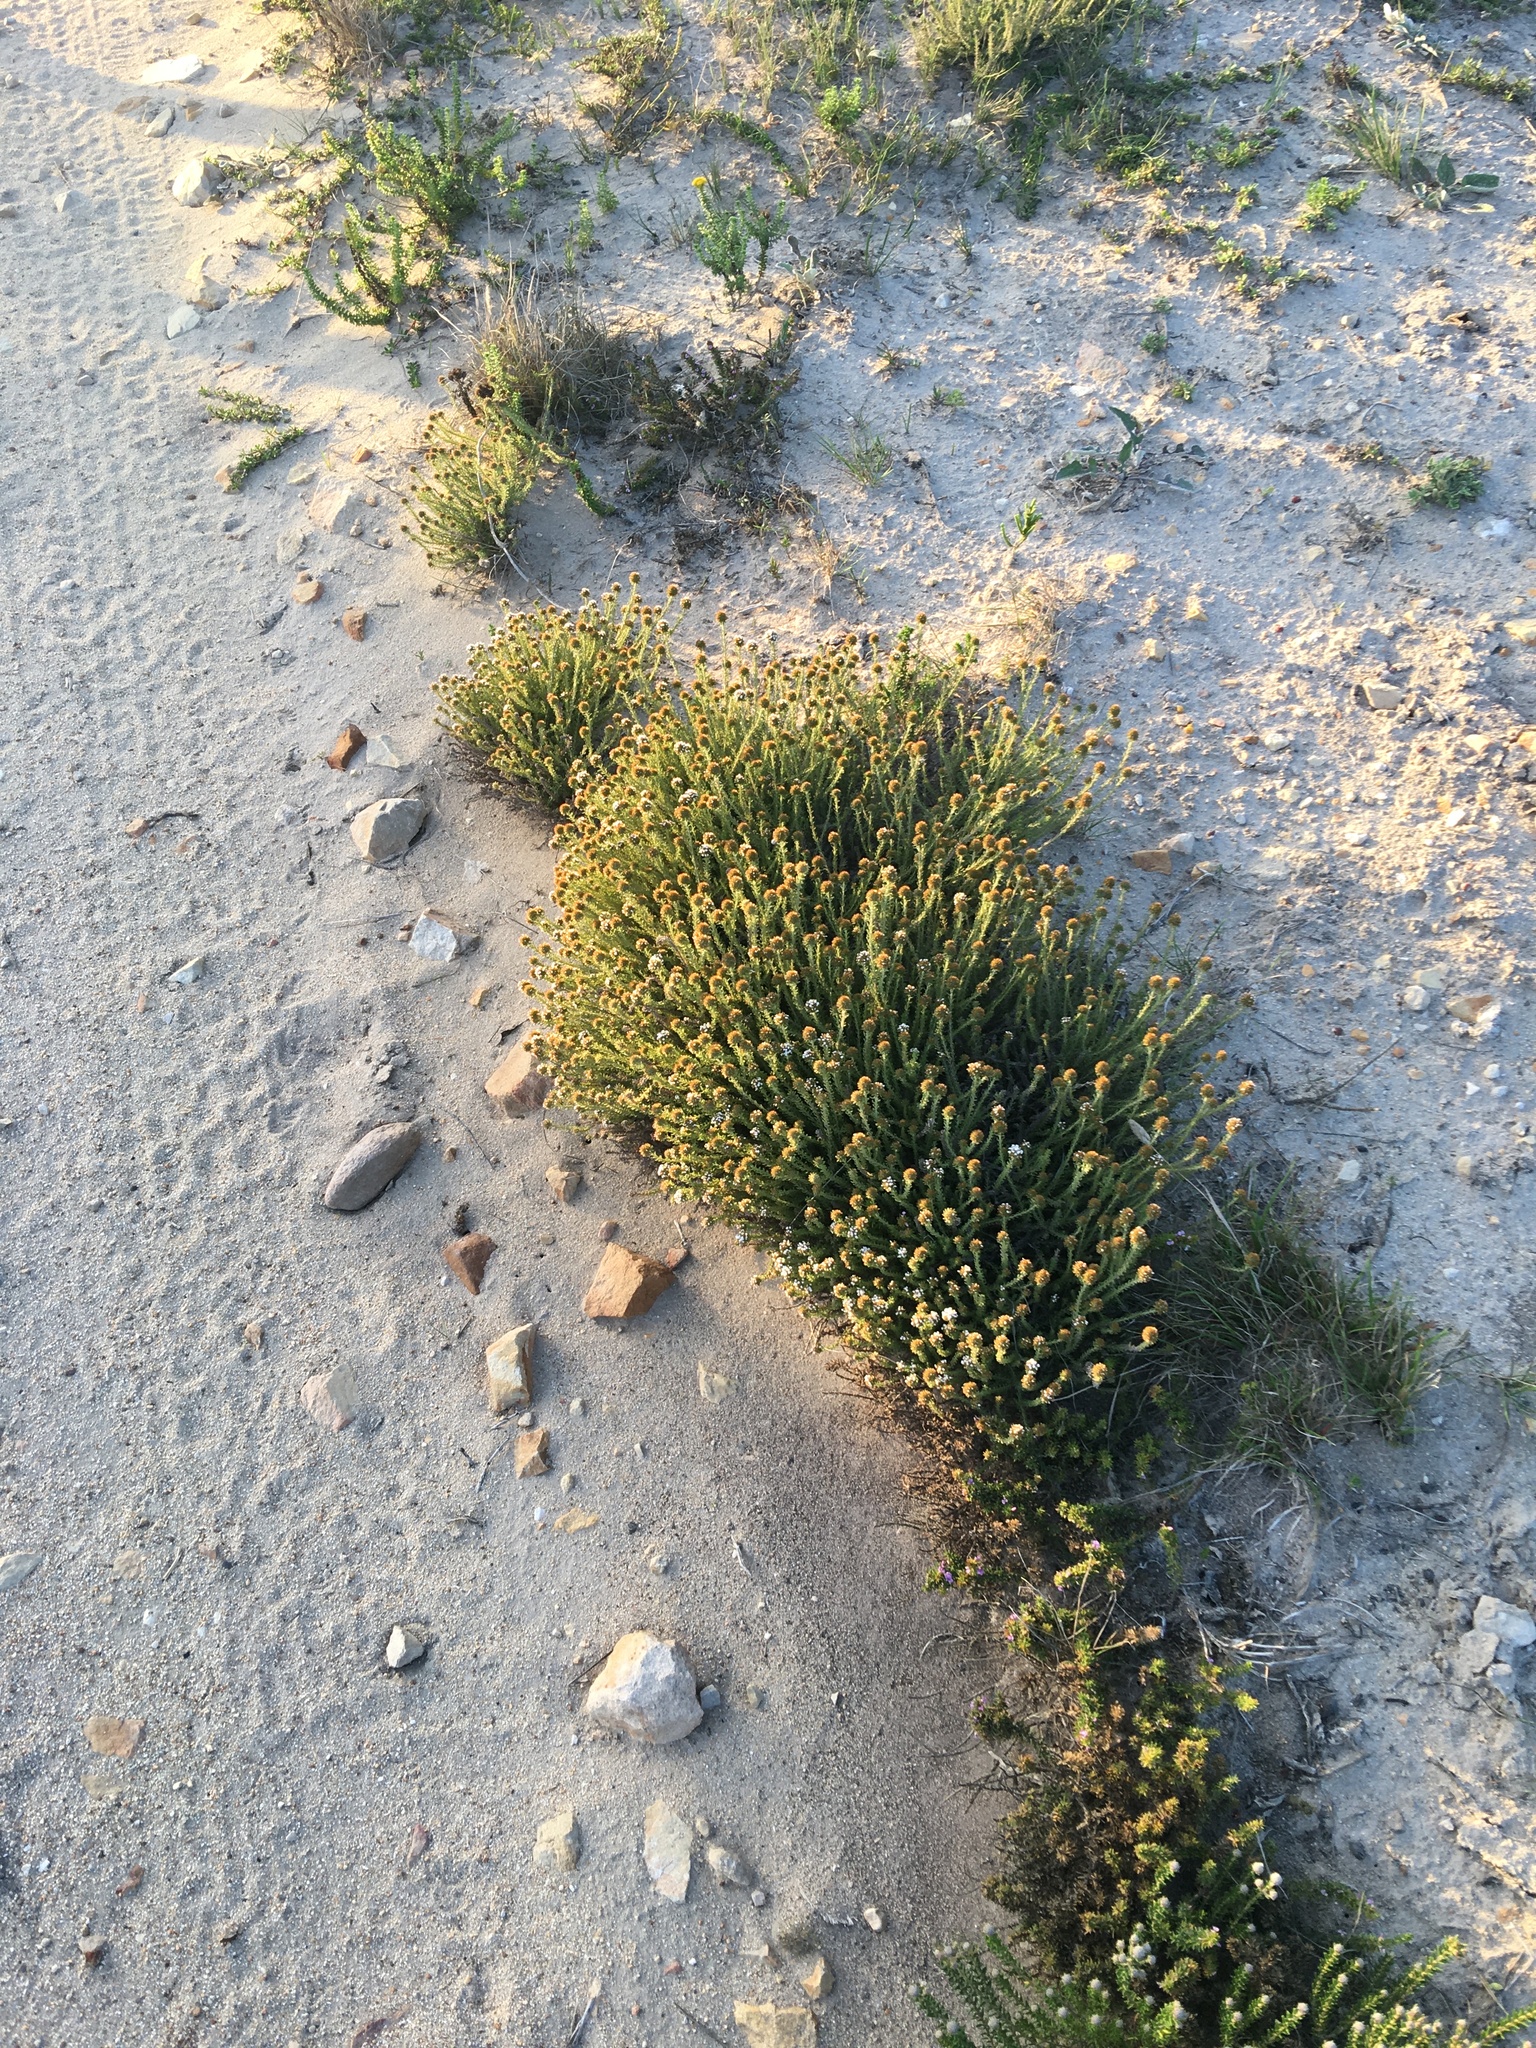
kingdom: Plantae
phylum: Tracheophyta
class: Magnoliopsida
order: Asterales
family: Asteraceae
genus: Disparago
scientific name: Disparago anomala
